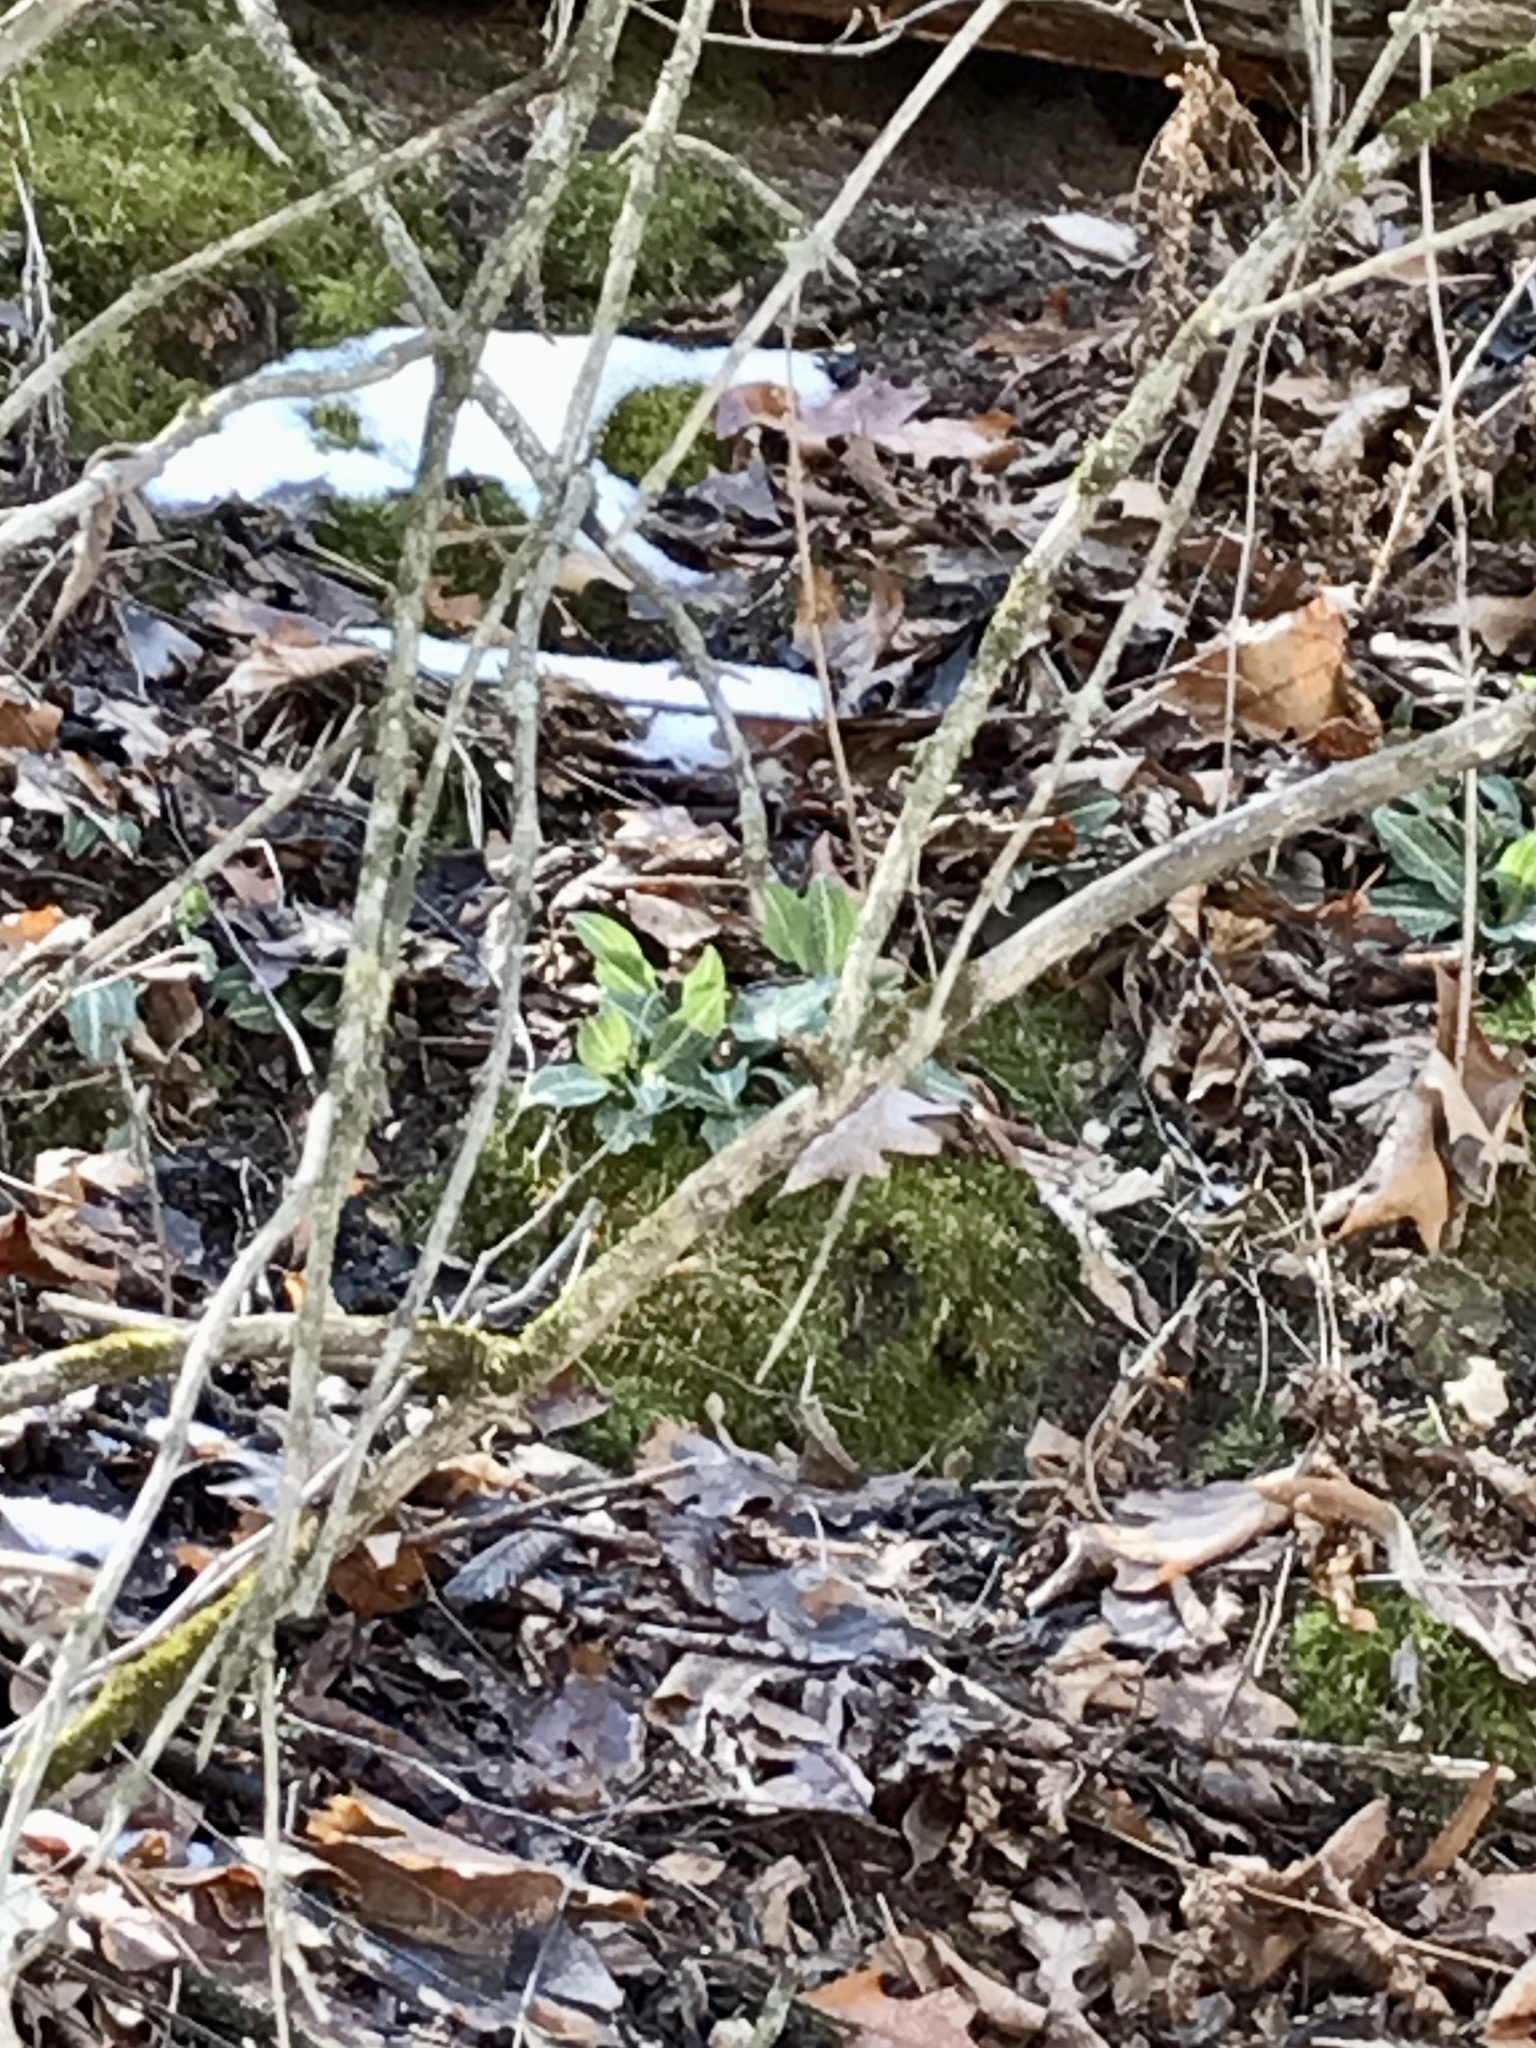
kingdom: Plantae
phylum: Tracheophyta
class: Liliopsida
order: Asparagales
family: Orchidaceae
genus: Goodyera
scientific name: Goodyera pubescens
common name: Downy rattlesnake-plantain
